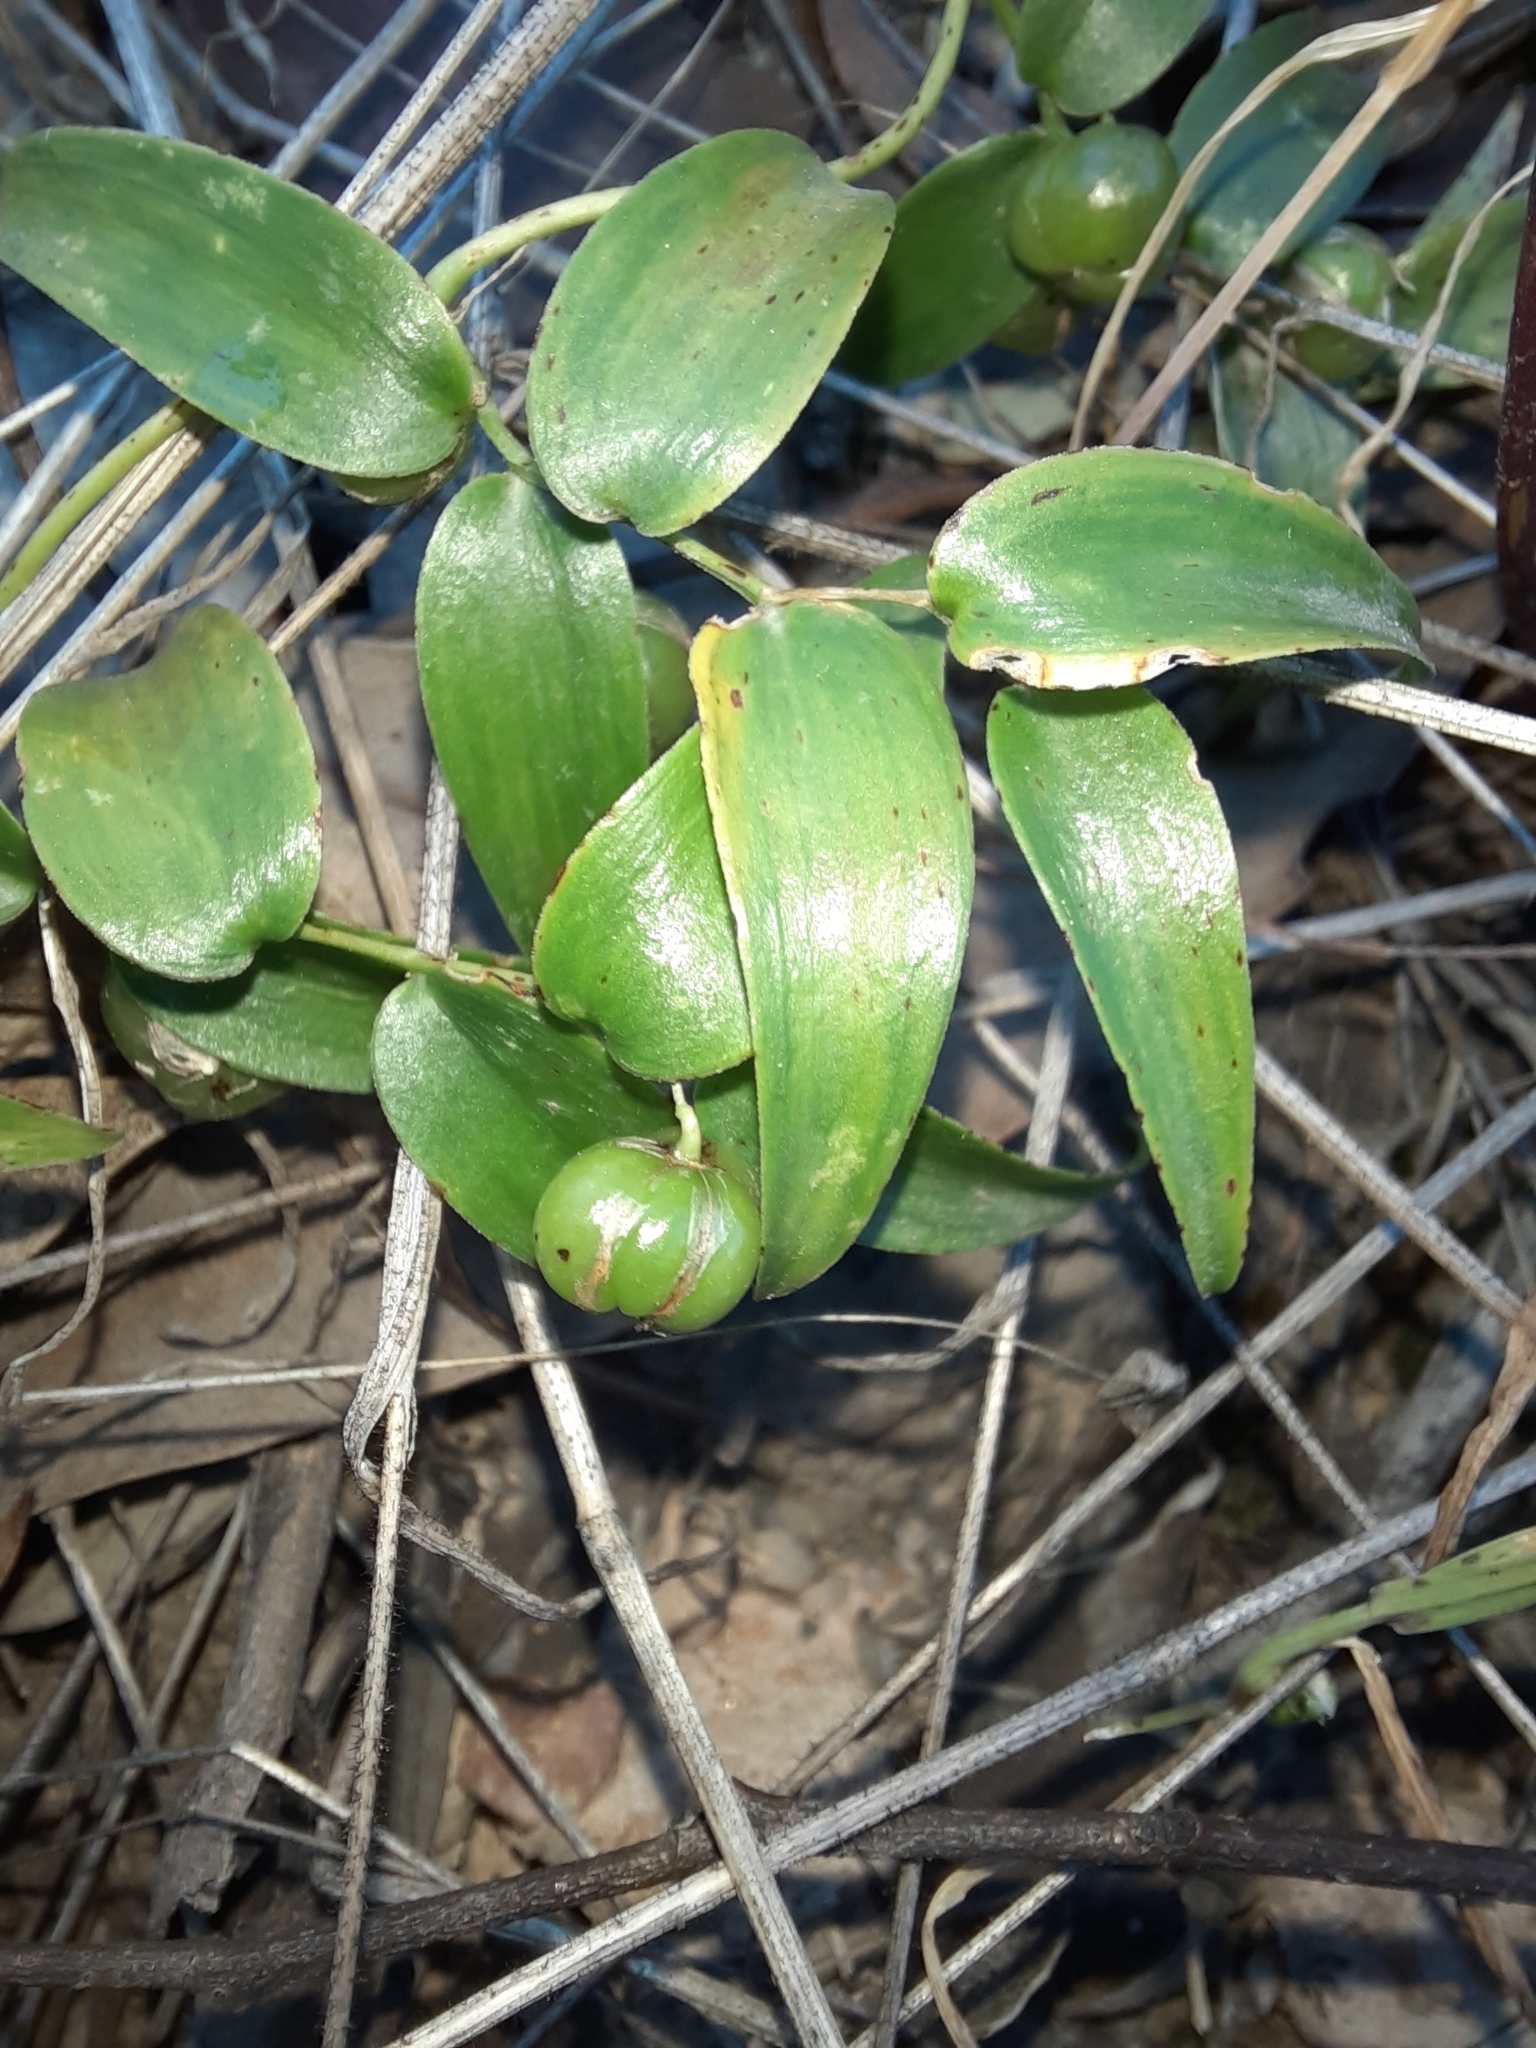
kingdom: Plantae
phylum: Tracheophyta
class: Liliopsida
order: Asparagales
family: Asparagaceae
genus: Asparagus
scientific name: Asparagus asparagoides
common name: African asparagus fern
